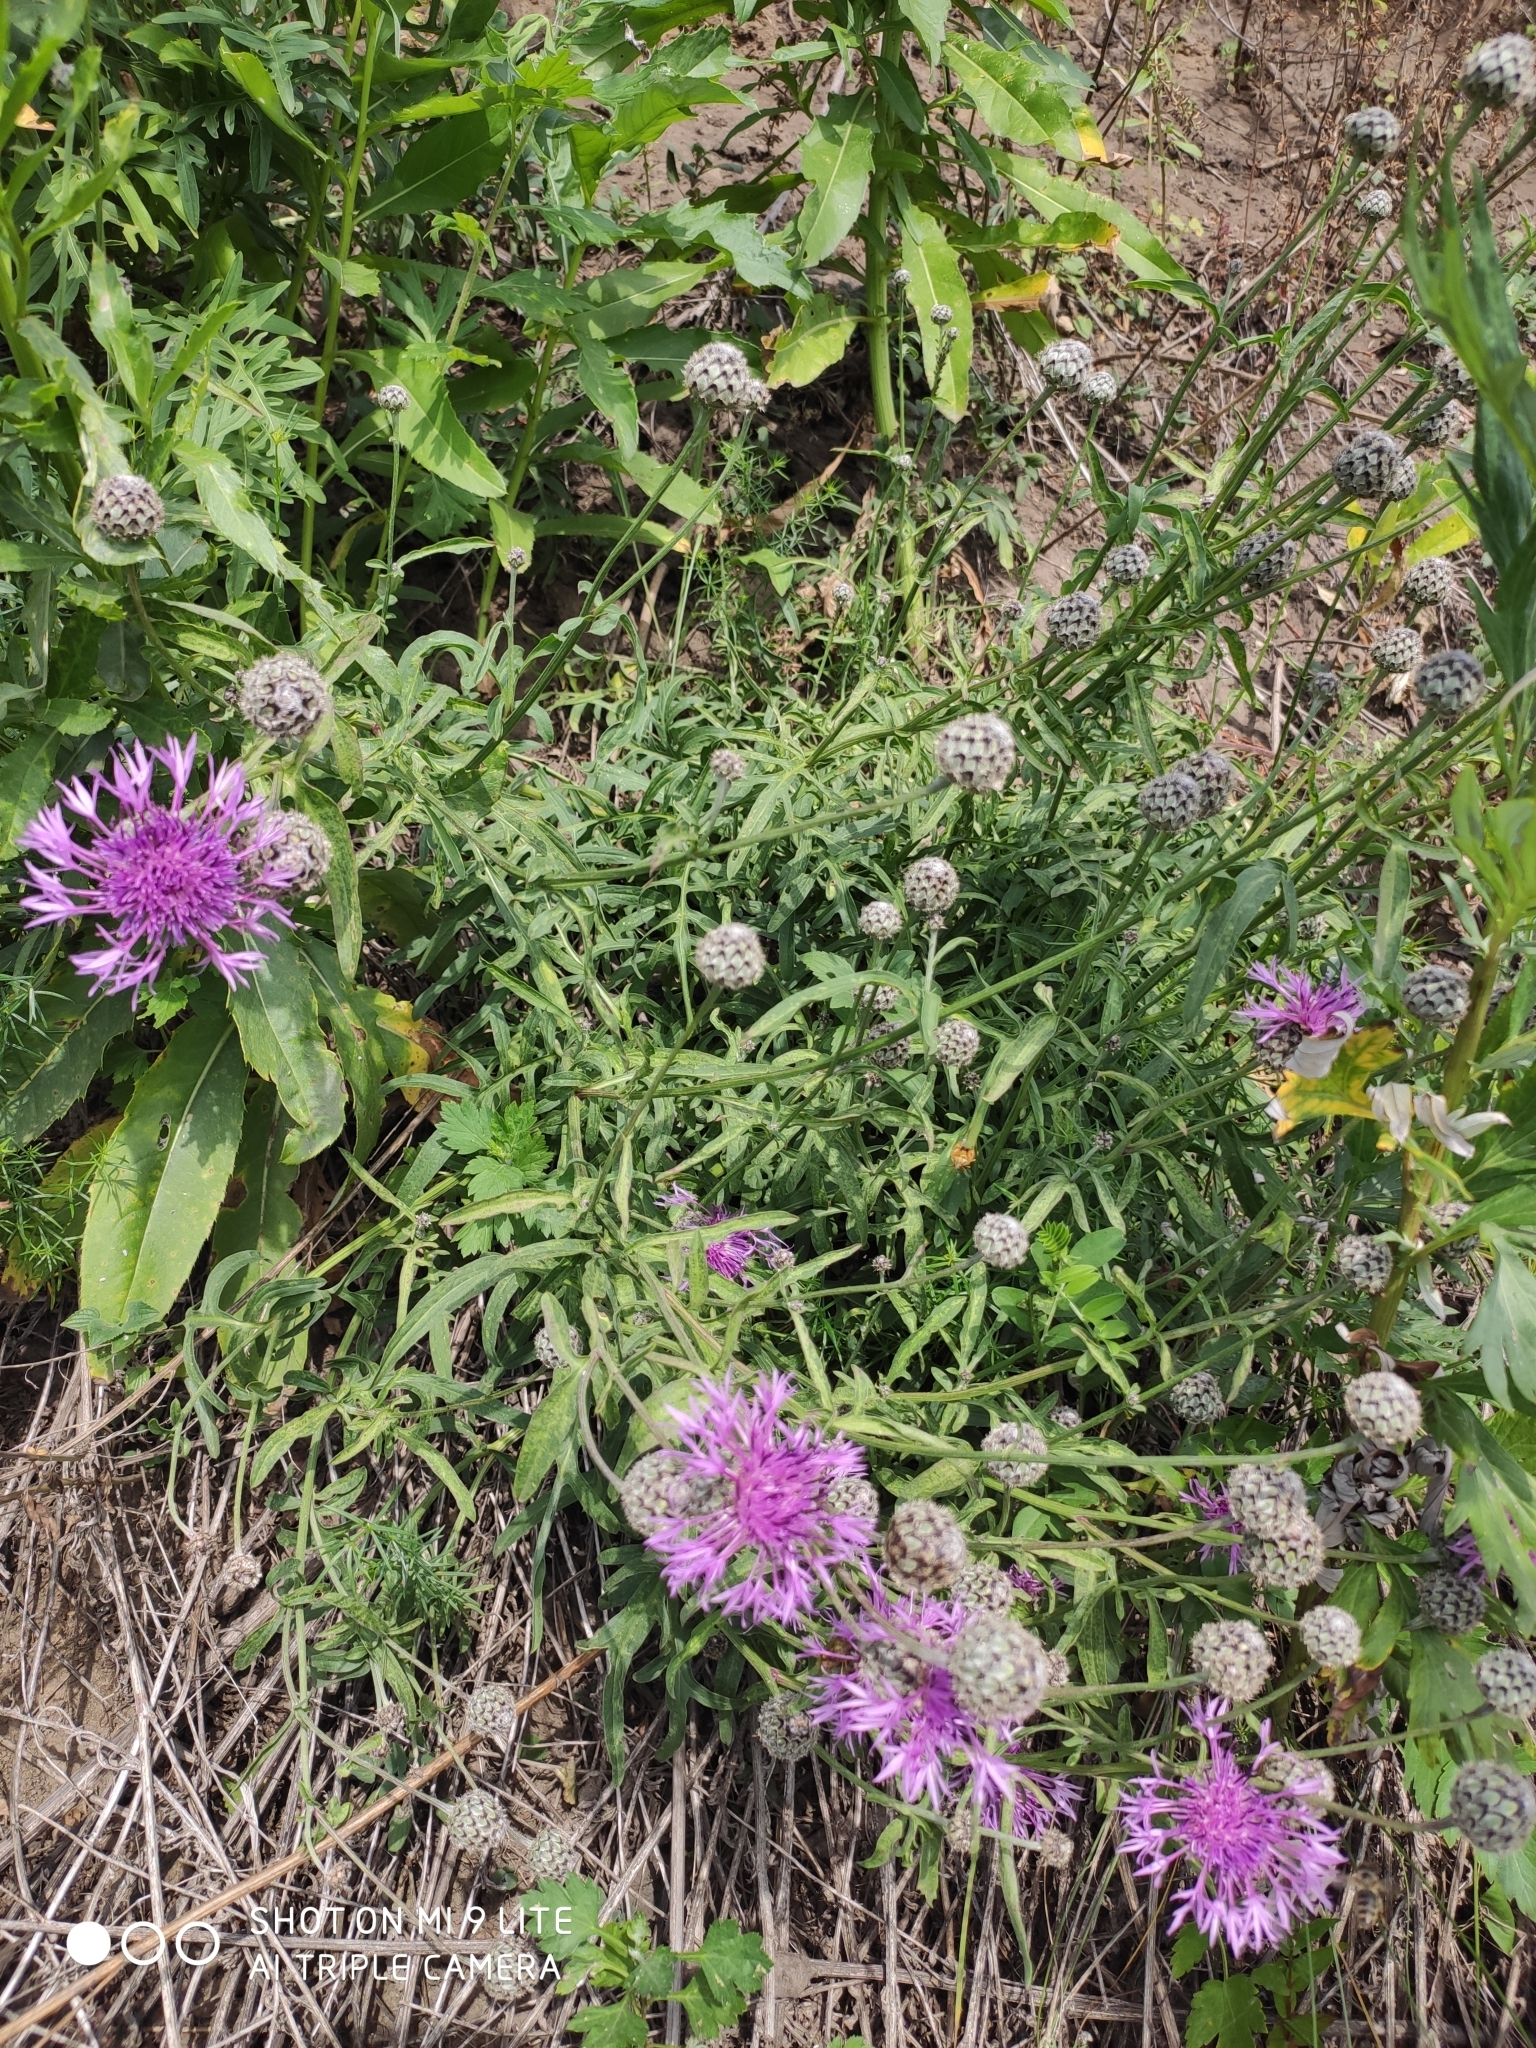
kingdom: Plantae
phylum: Tracheophyta
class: Magnoliopsida
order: Asterales
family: Asteraceae
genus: Centaurea
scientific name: Centaurea scabiosa
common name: Greater knapweed
